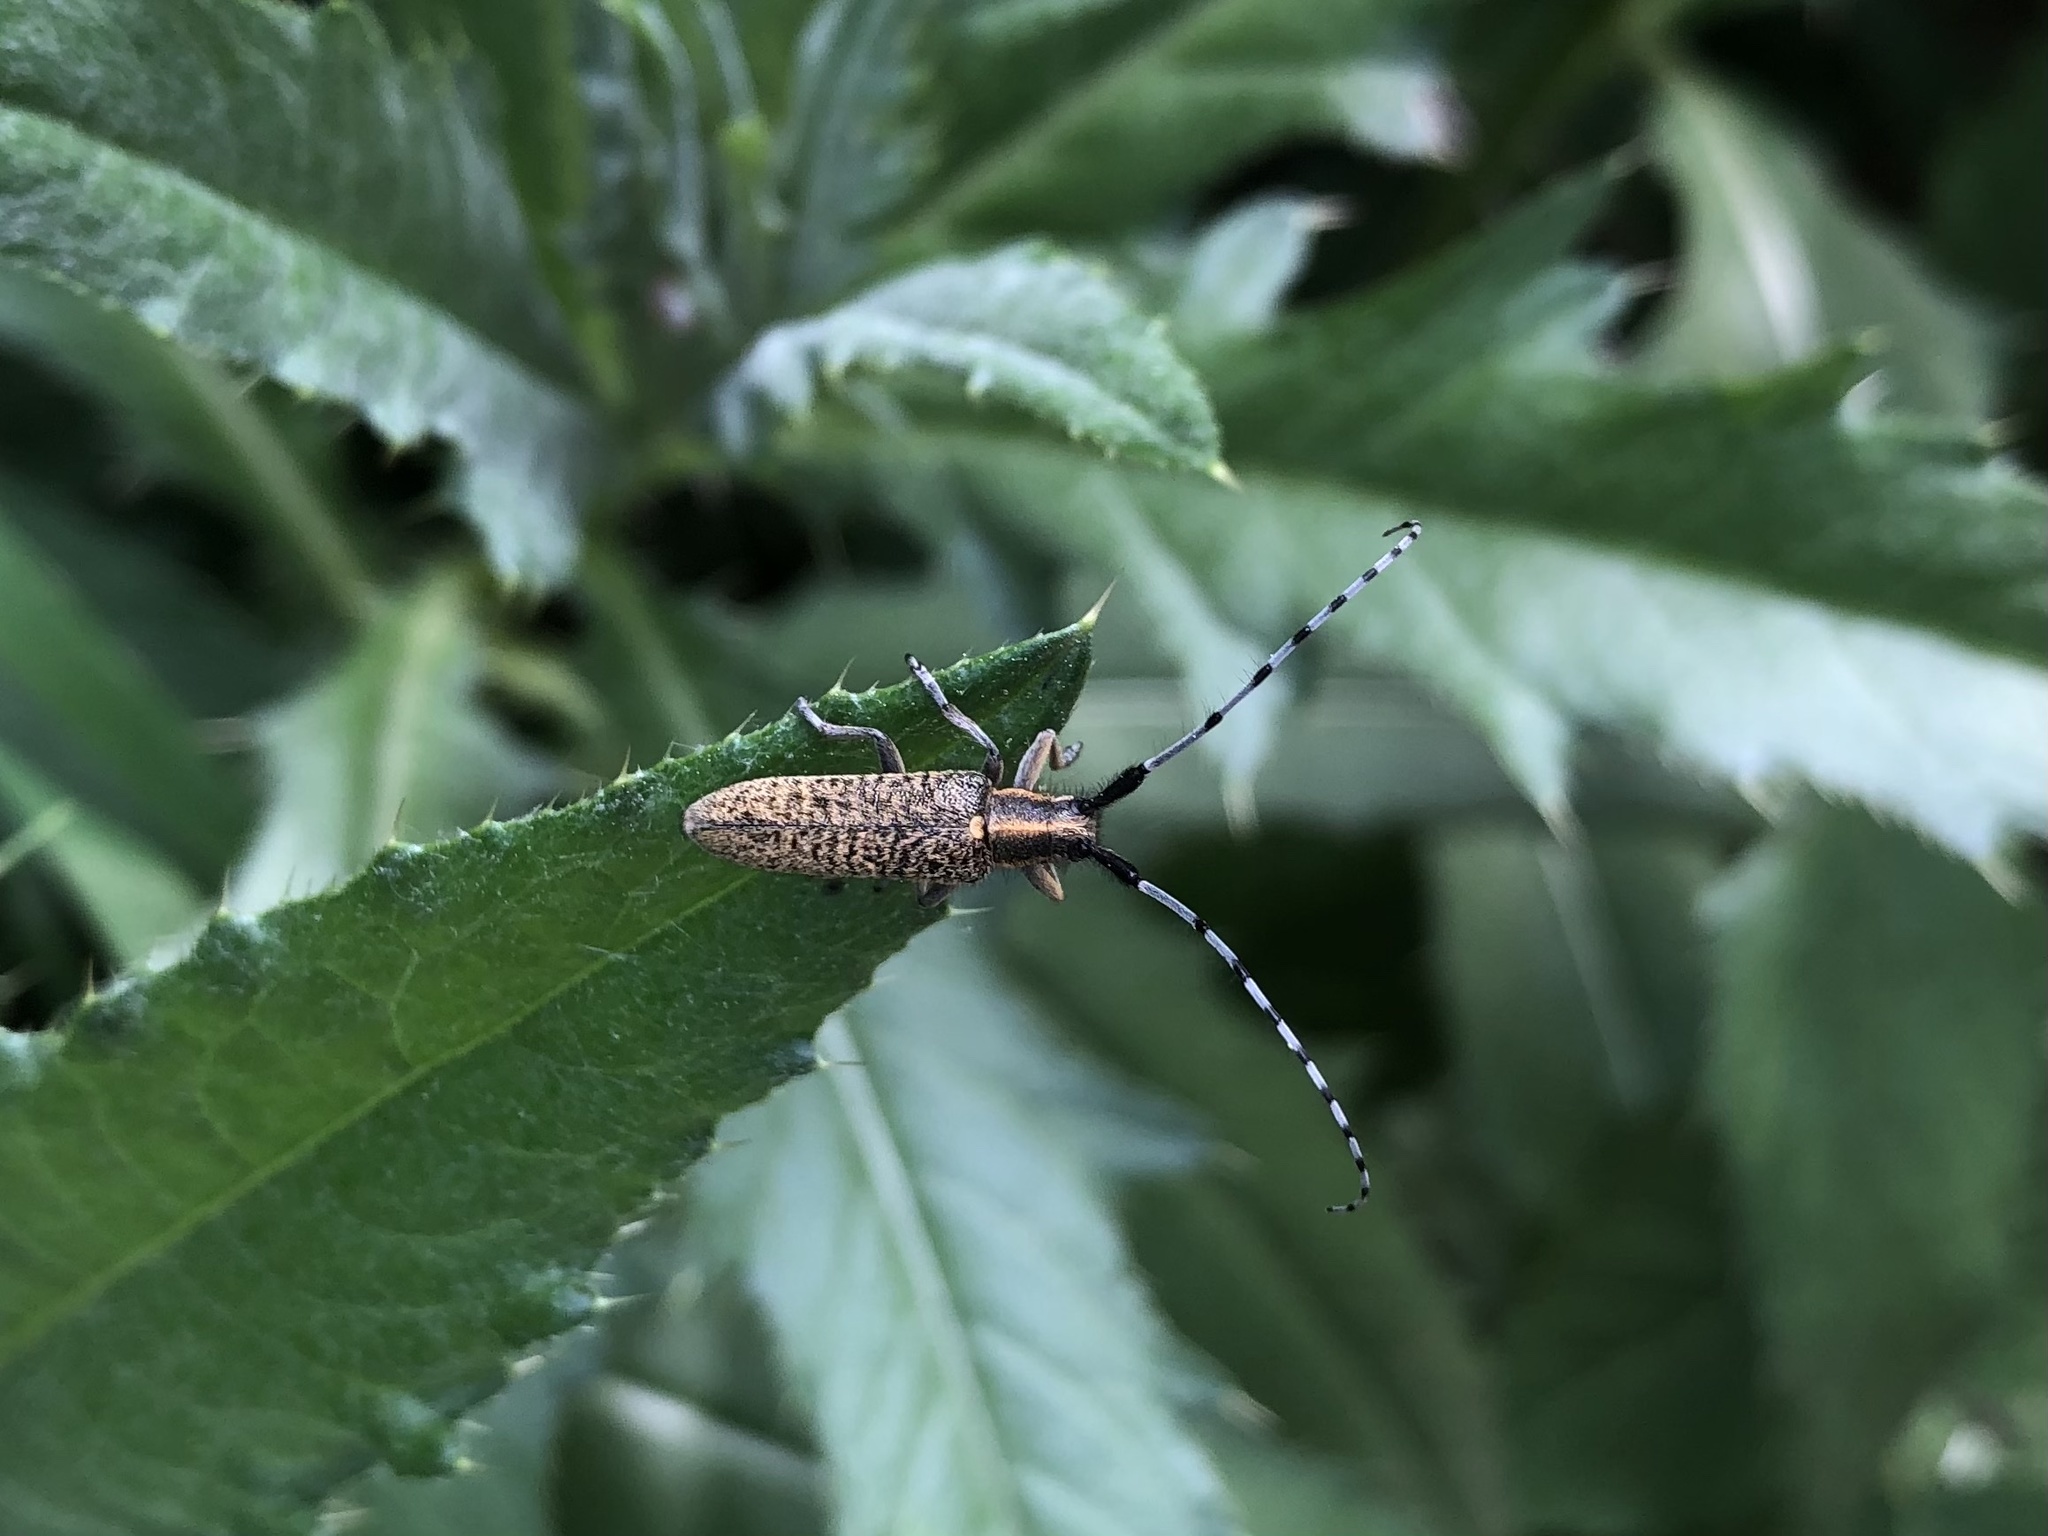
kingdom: Animalia
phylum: Arthropoda
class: Insecta
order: Coleoptera
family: Cerambycidae
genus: Agapanthia
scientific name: Agapanthia villosoviridescens
